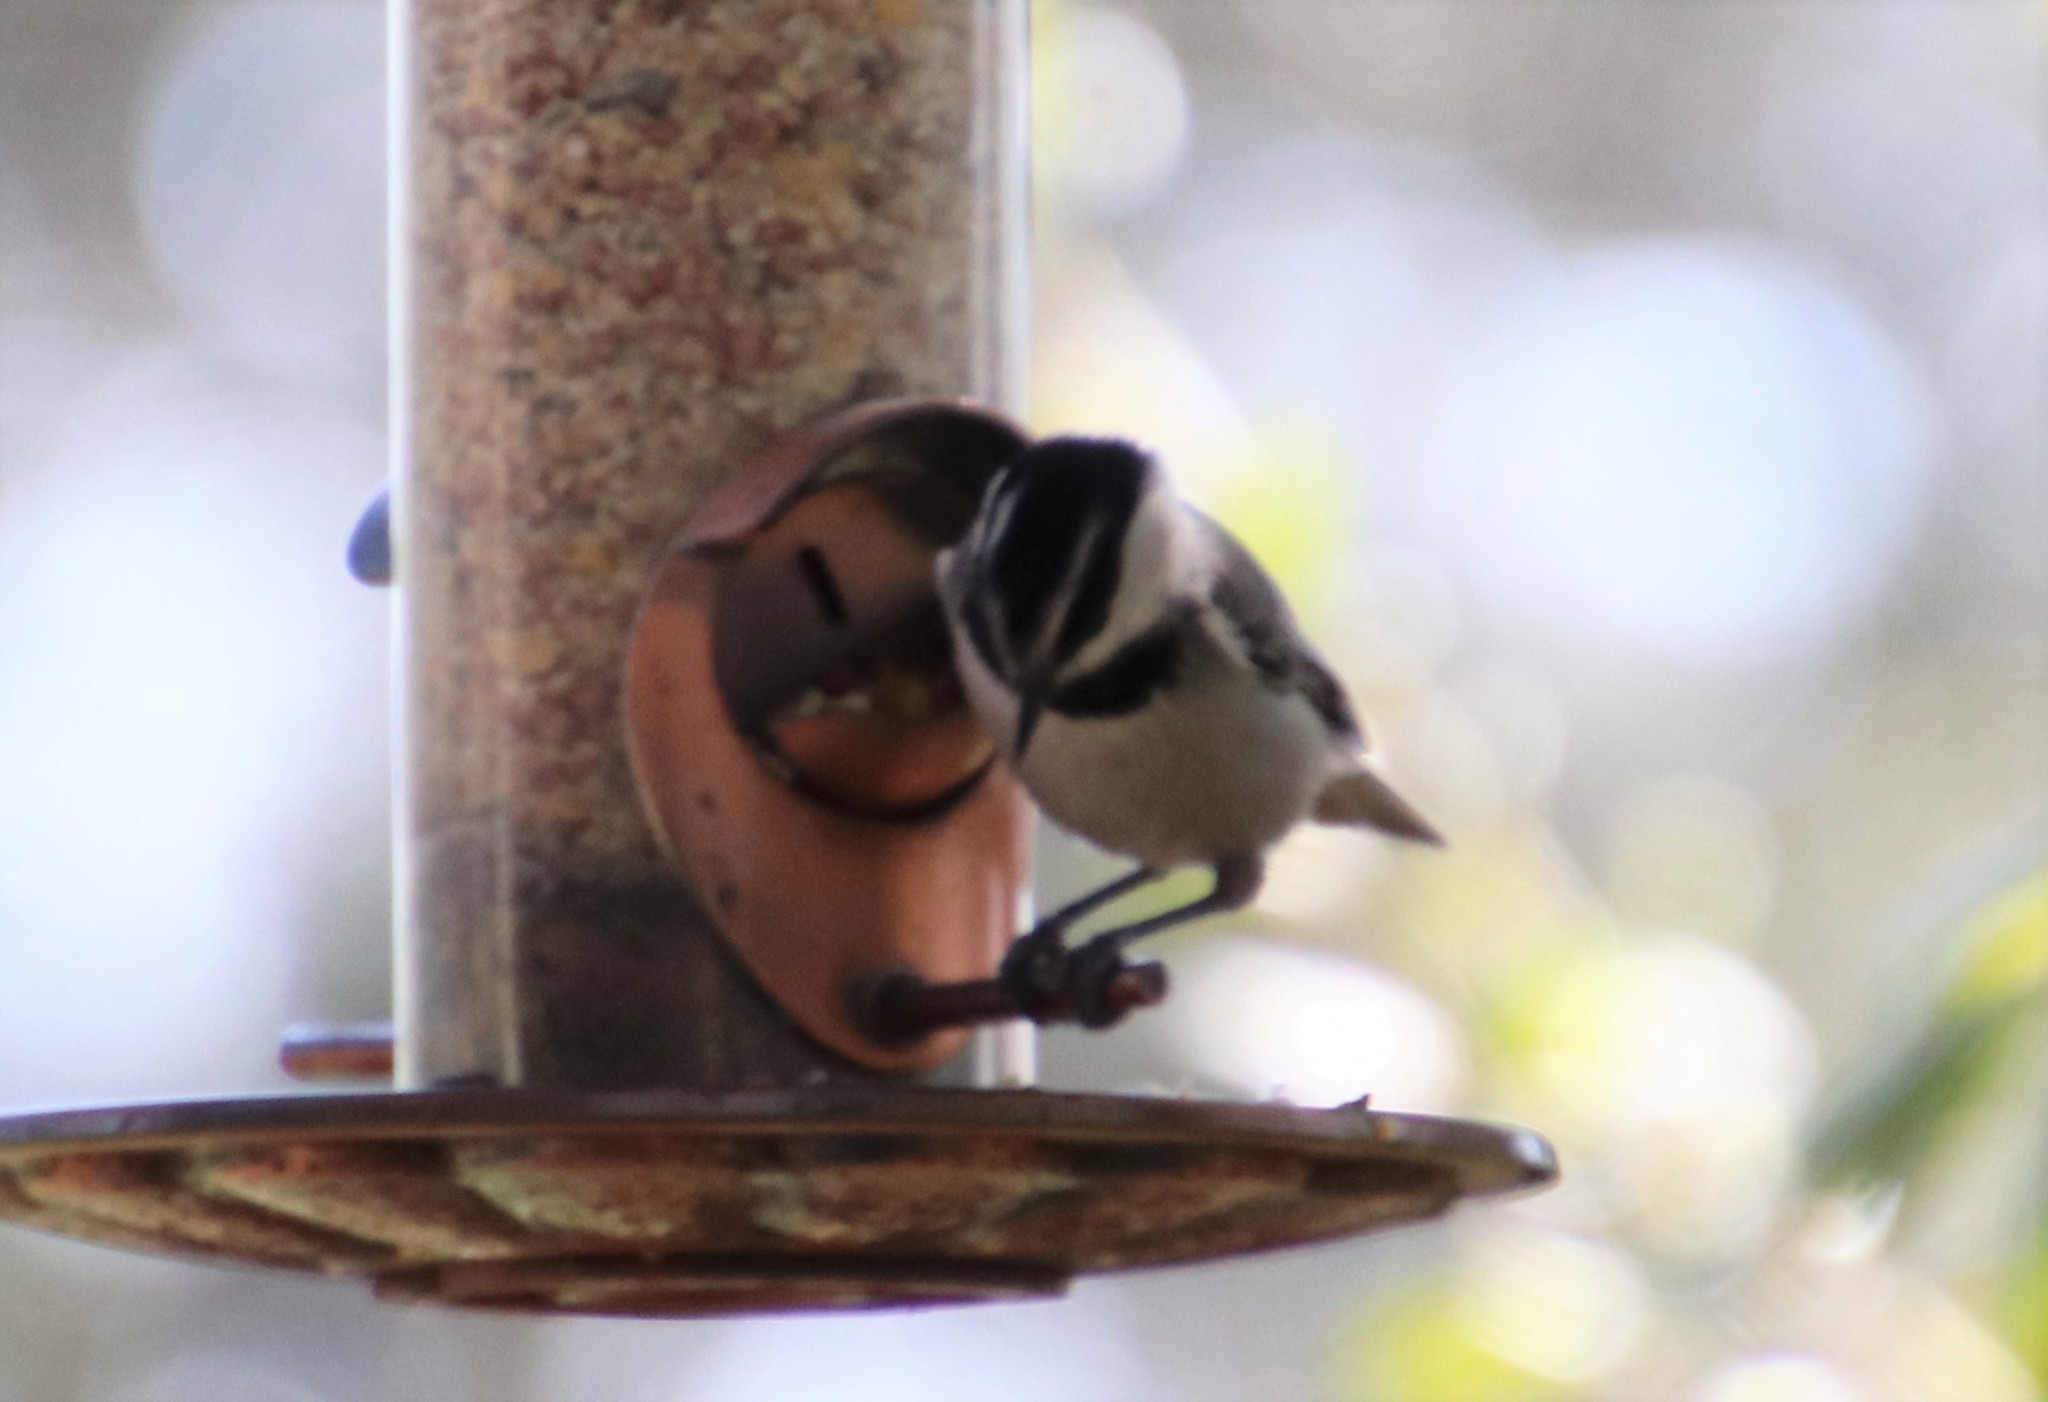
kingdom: Animalia
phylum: Chordata
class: Aves
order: Passeriformes
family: Paridae
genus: Poecile
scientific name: Poecile gambeli
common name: Mountain chickadee
